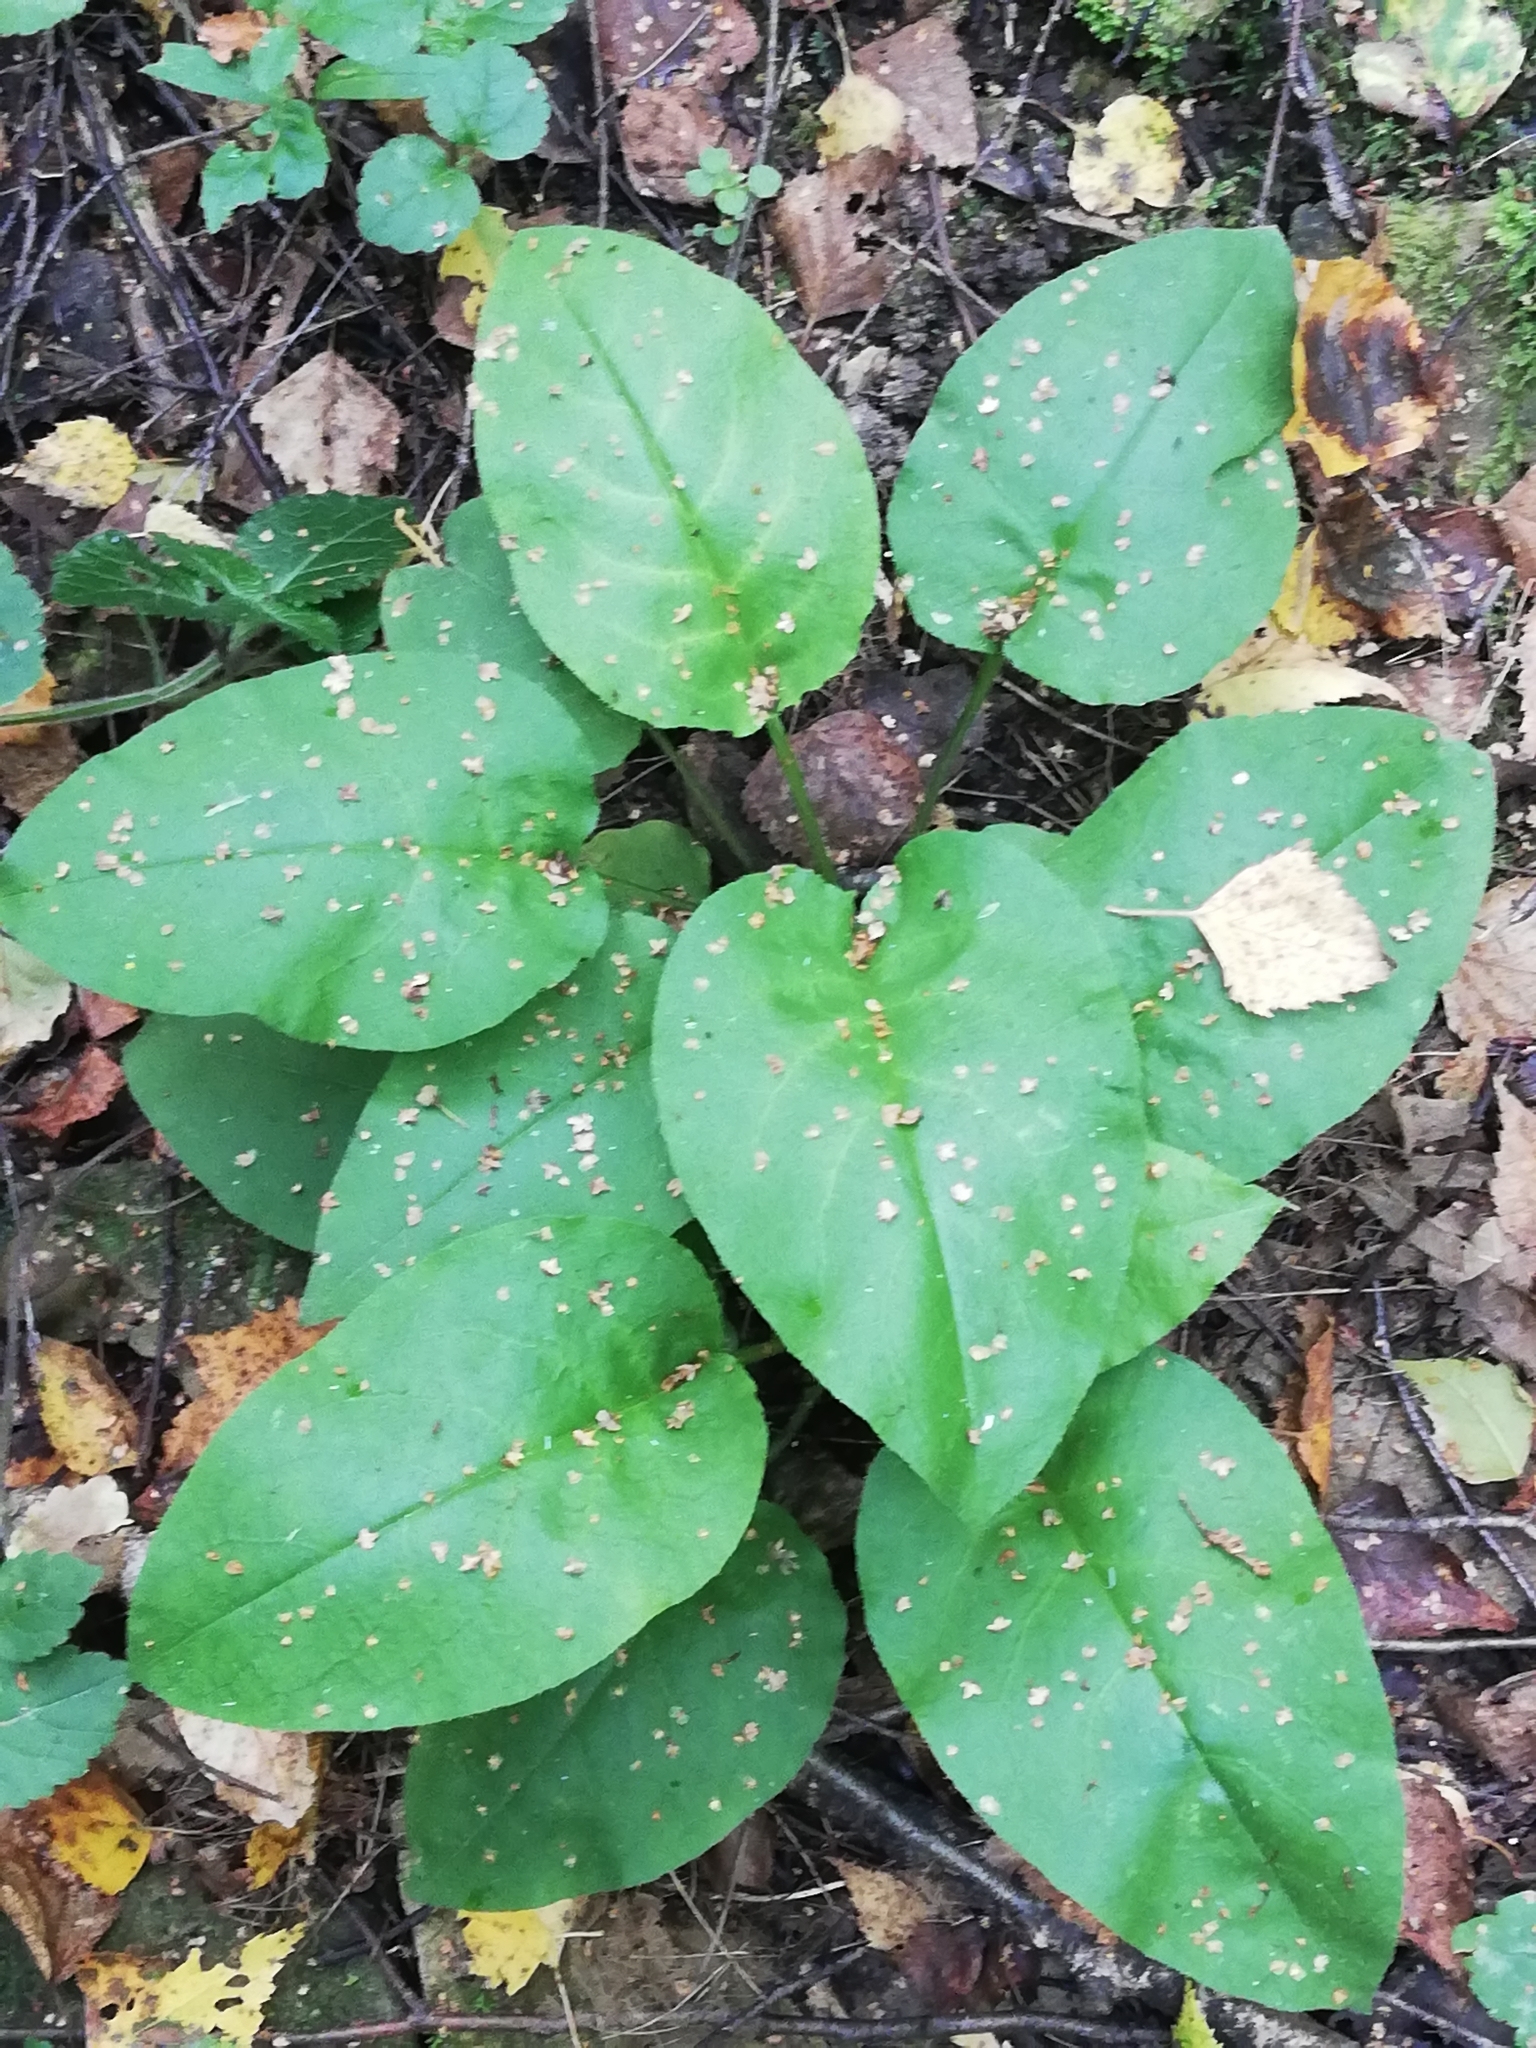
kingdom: Plantae
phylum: Tracheophyta
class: Magnoliopsida
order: Boraginales
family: Boraginaceae
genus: Pulmonaria
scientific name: Pulmonaria obscura
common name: Suffolk lungwort
